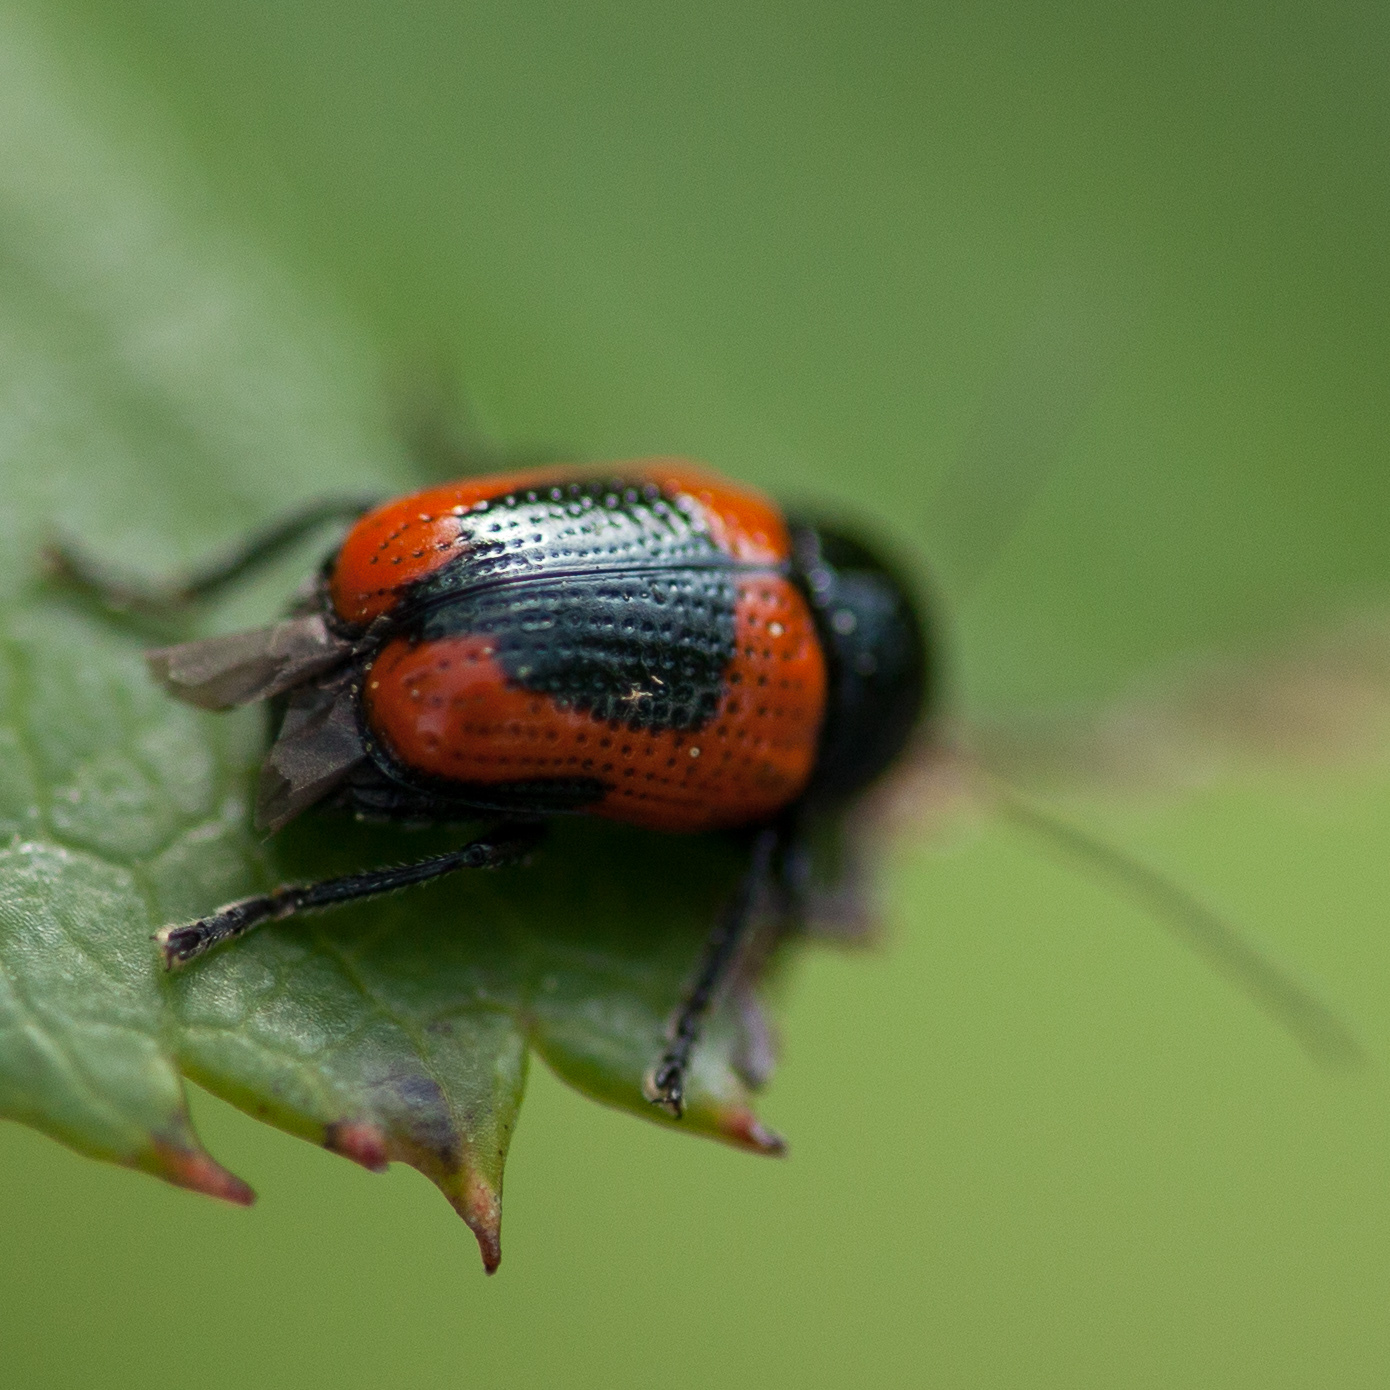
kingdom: Animalia
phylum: Arthropoda
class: Insecta
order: Coleoptera
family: Chrysomelidae
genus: Cryptocephalus
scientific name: Cryptocephalus notatus
